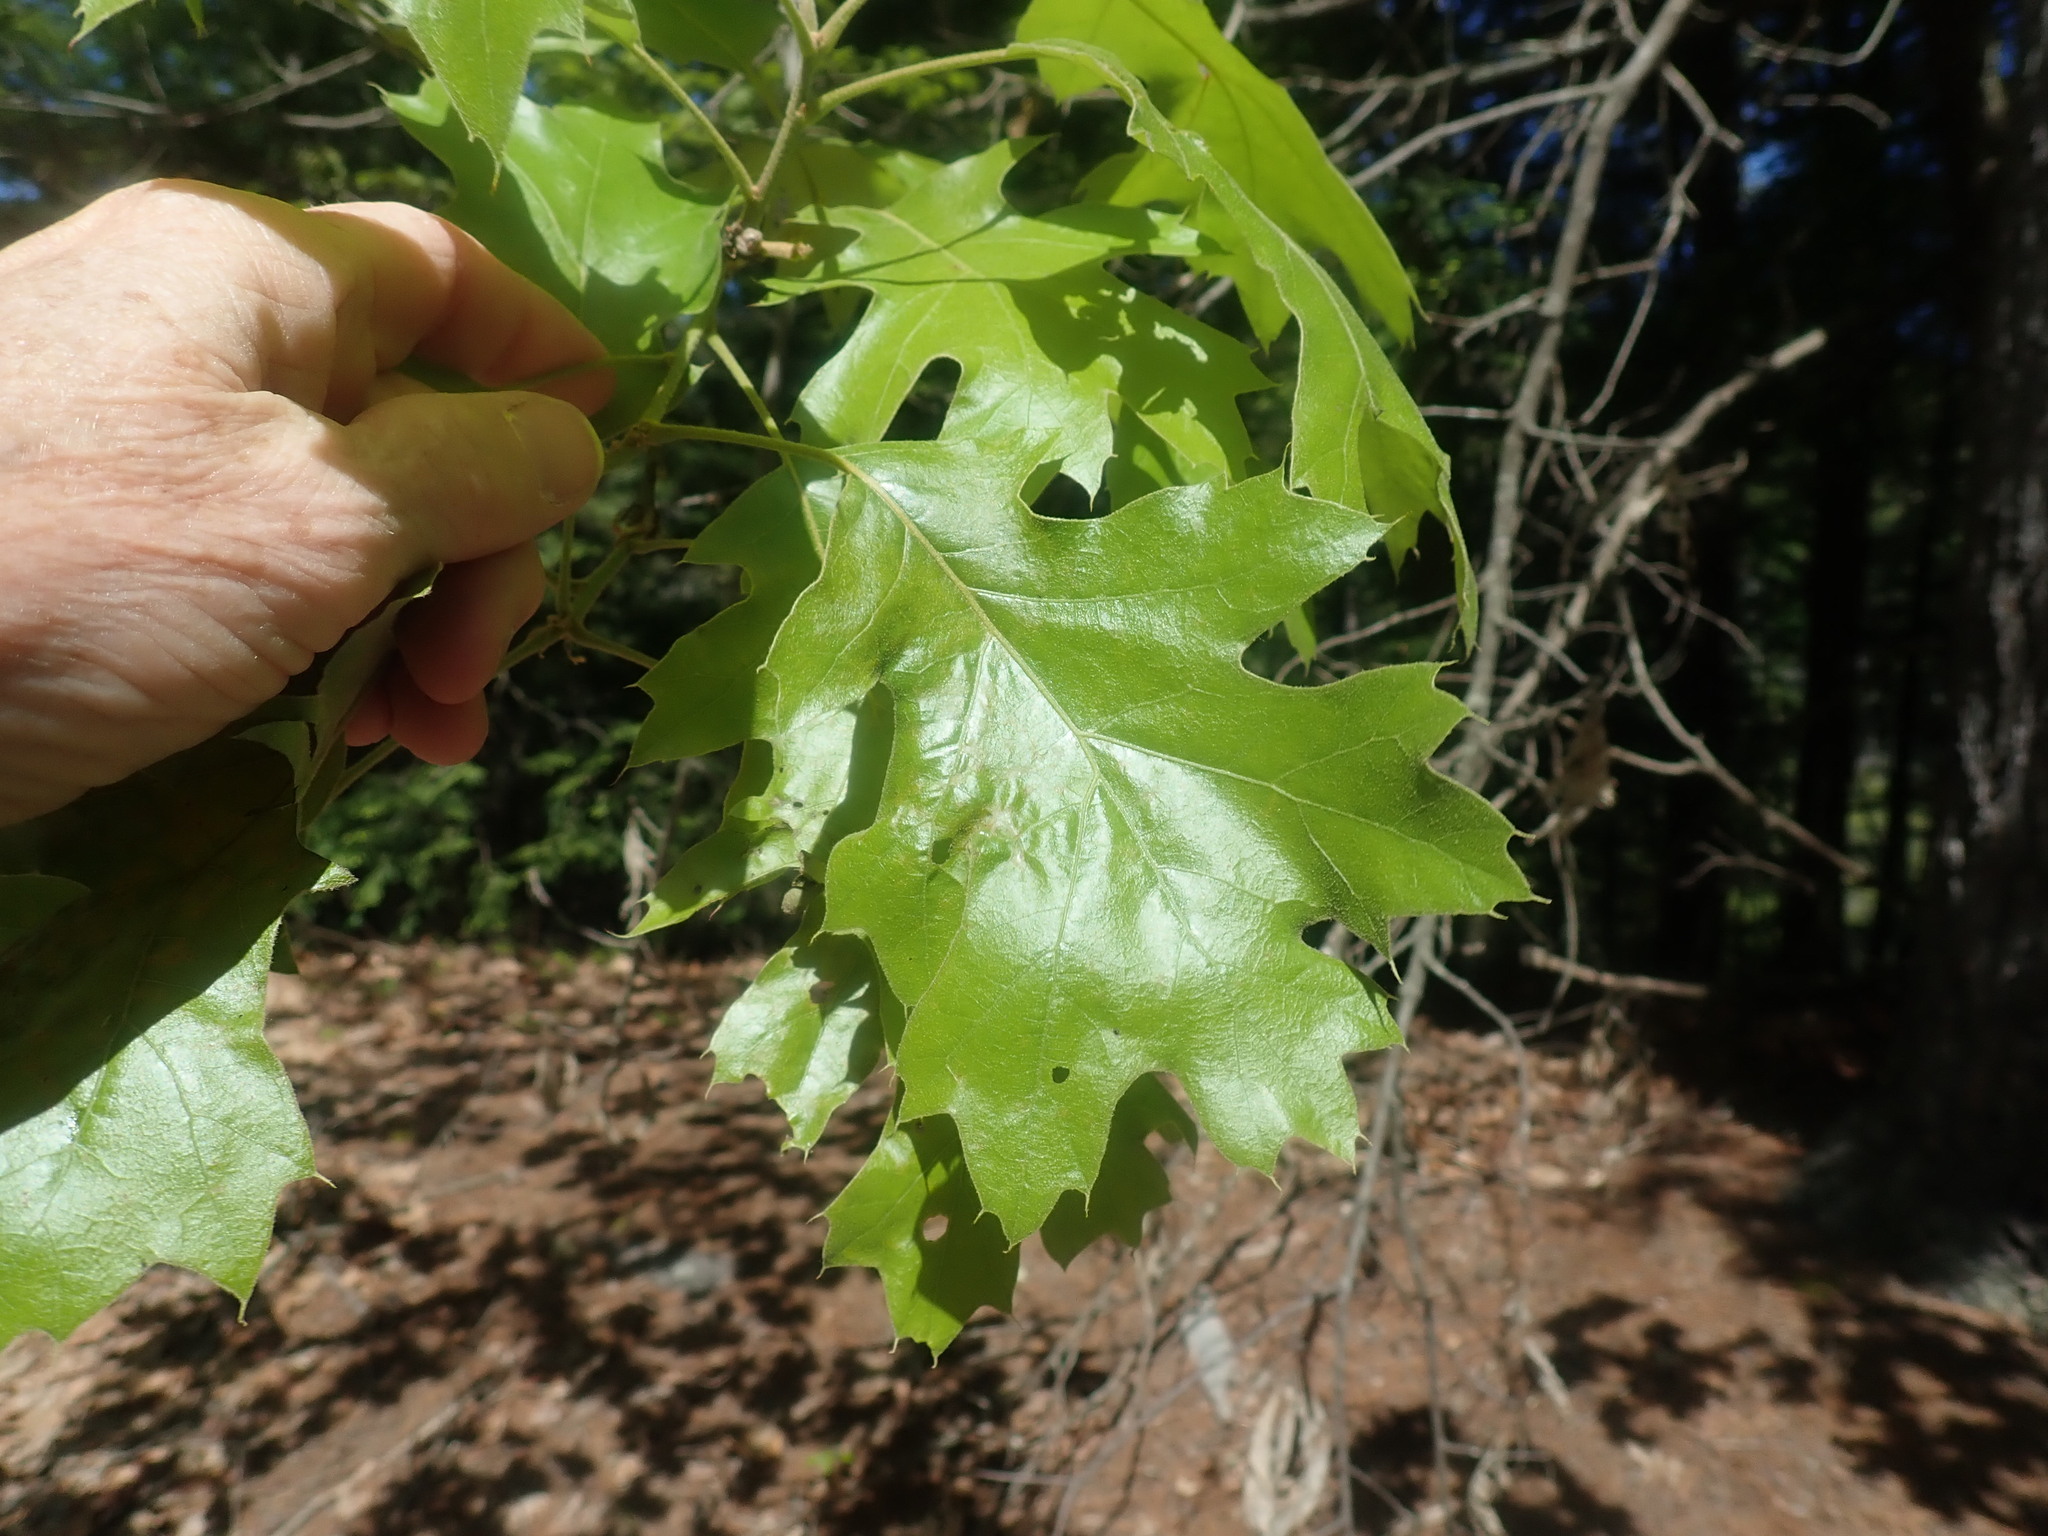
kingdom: Plantae
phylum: Tracheophyta
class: Magnoliopsida
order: Fagales
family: Fagaceae
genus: Quercus
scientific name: Quercus velutina
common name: Black oak
